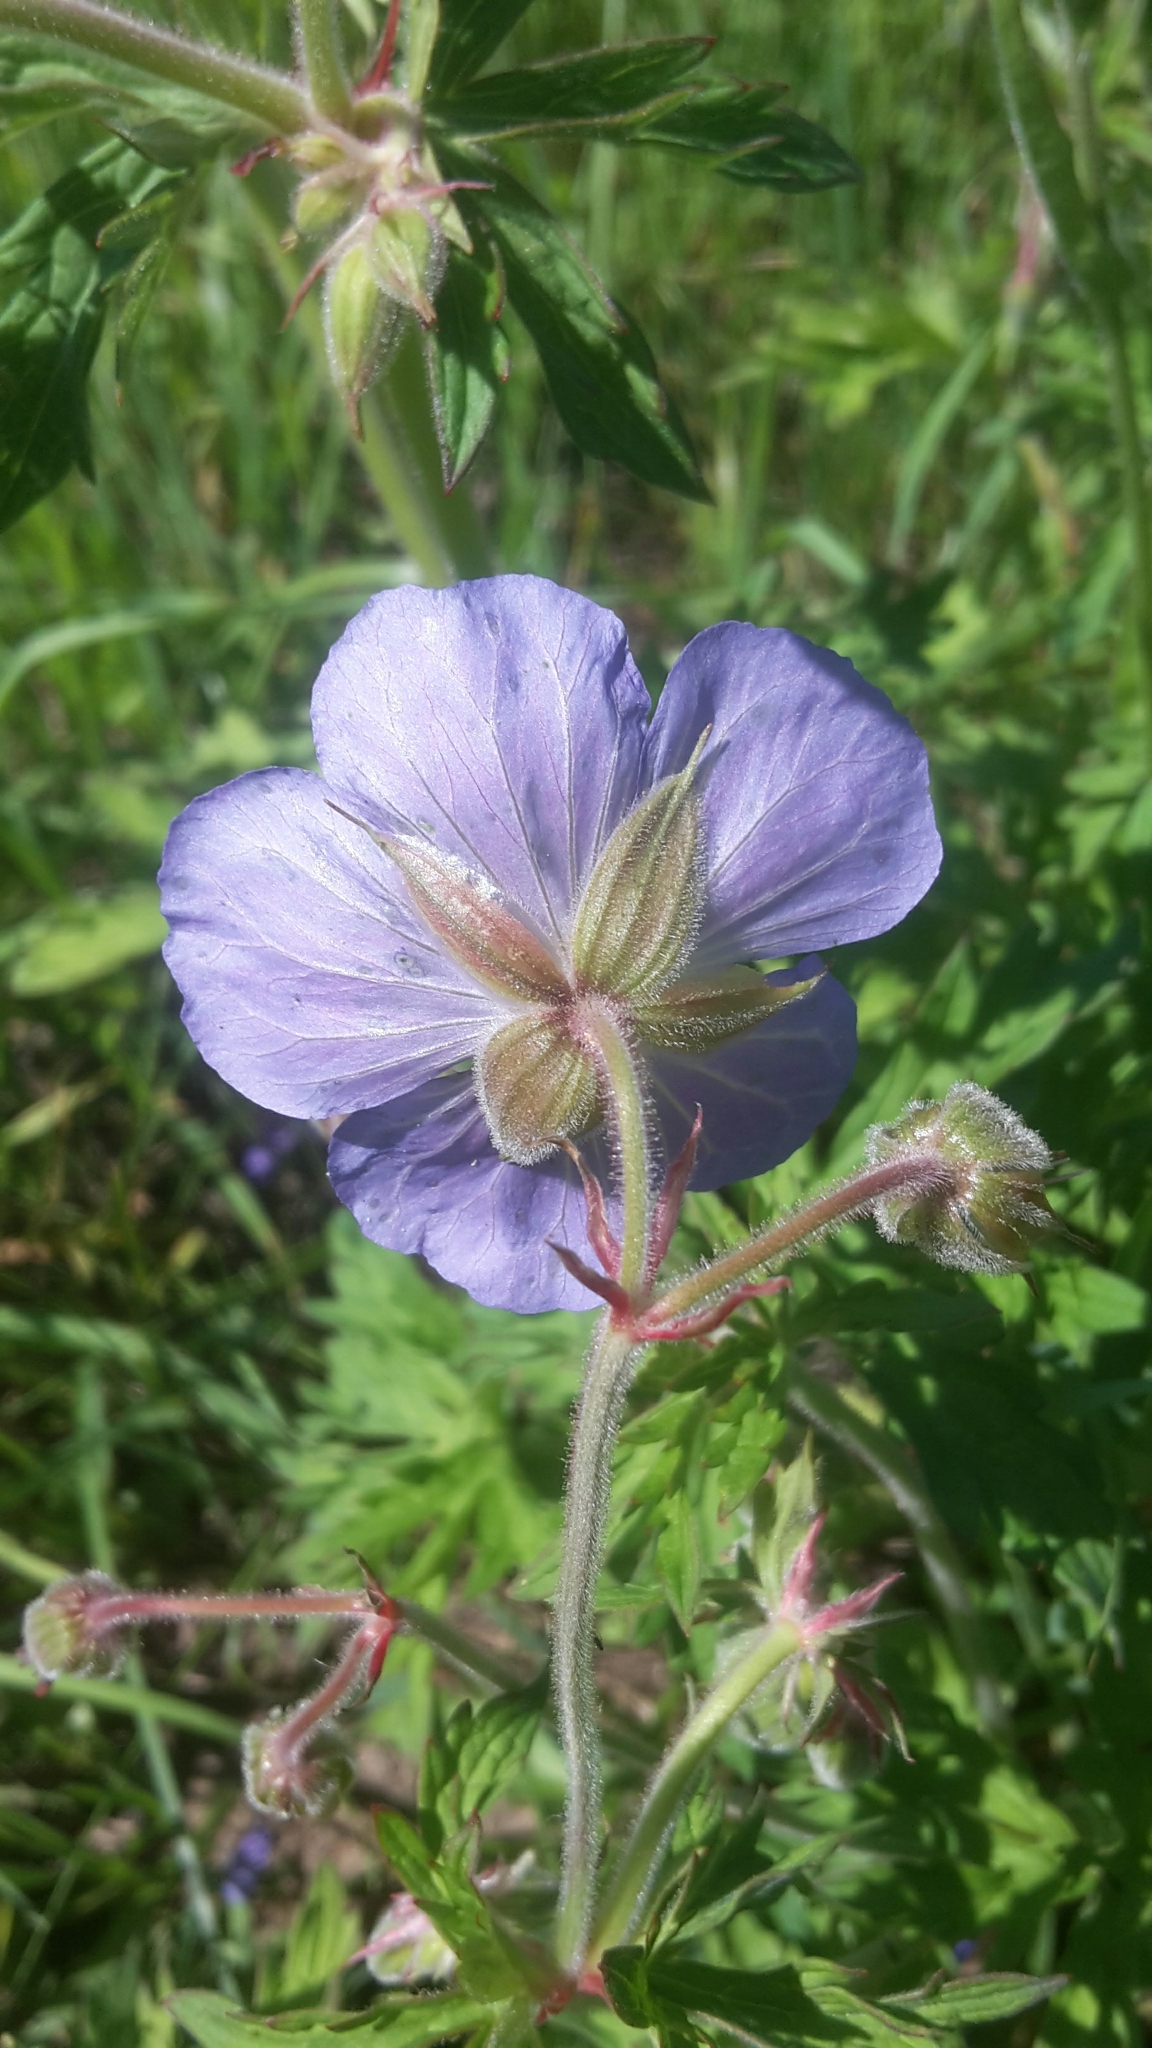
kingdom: Plantae
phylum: Tracheophyta
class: Magnoliopsida
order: Geraniales
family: Geraniaceae
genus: Geranium
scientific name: Geranium pratense
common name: Meadow crane's-bill
